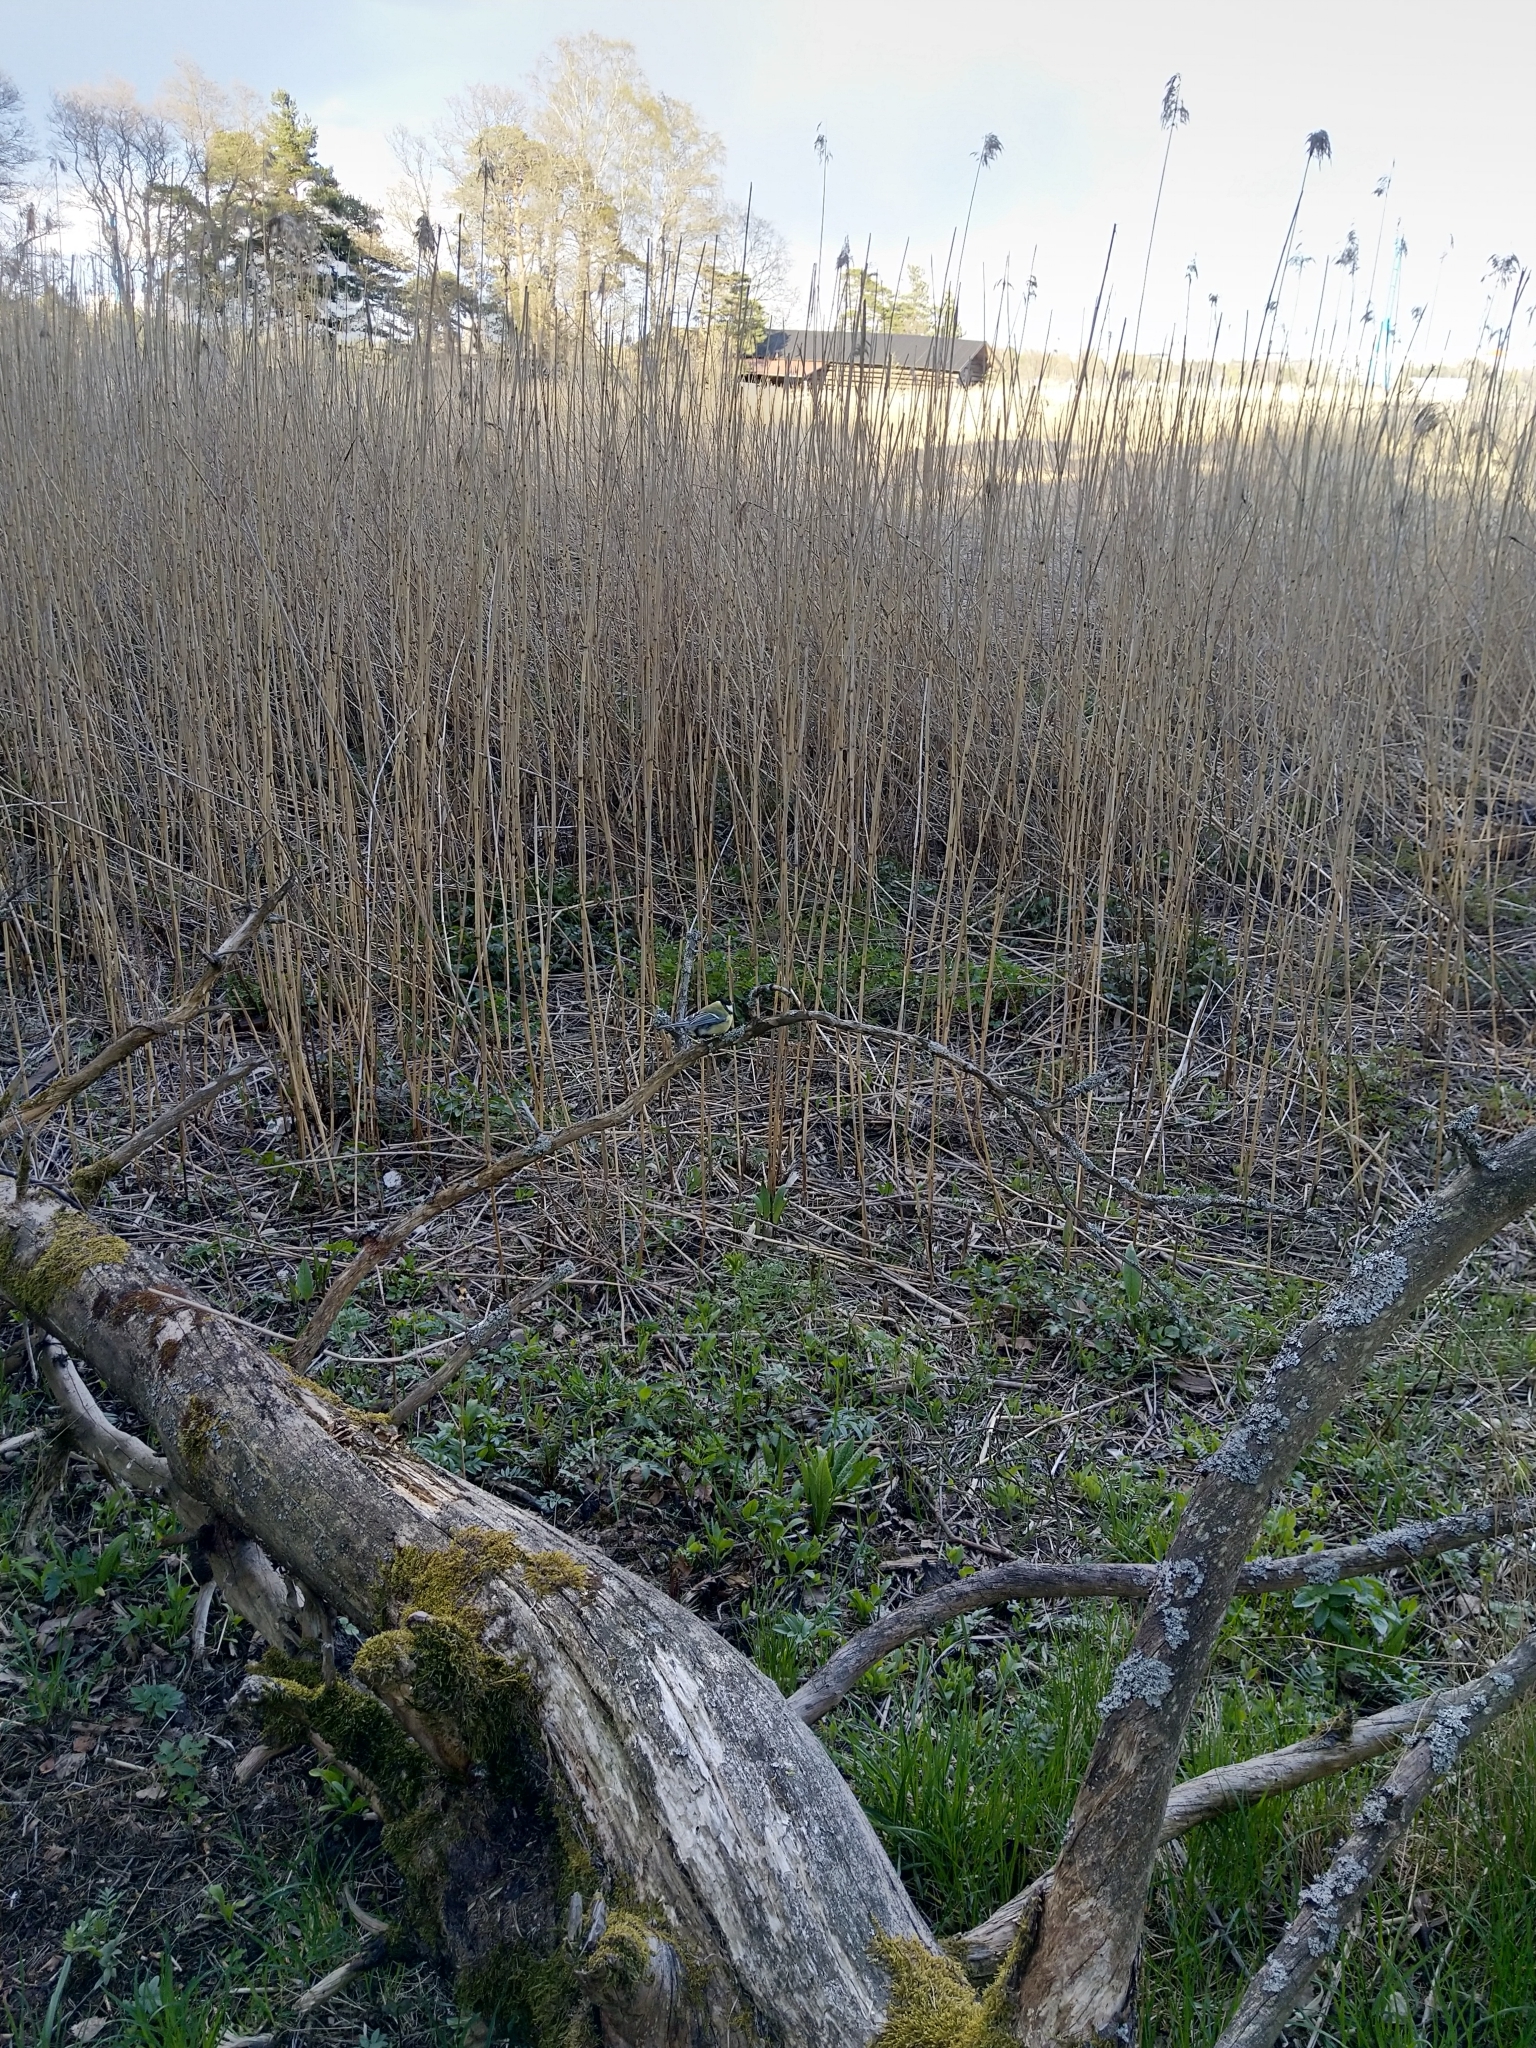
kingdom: Animalia
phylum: Chordata
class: Aves
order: Passeriformes
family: Paridae
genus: Parus
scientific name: Parus major
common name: Great tit
